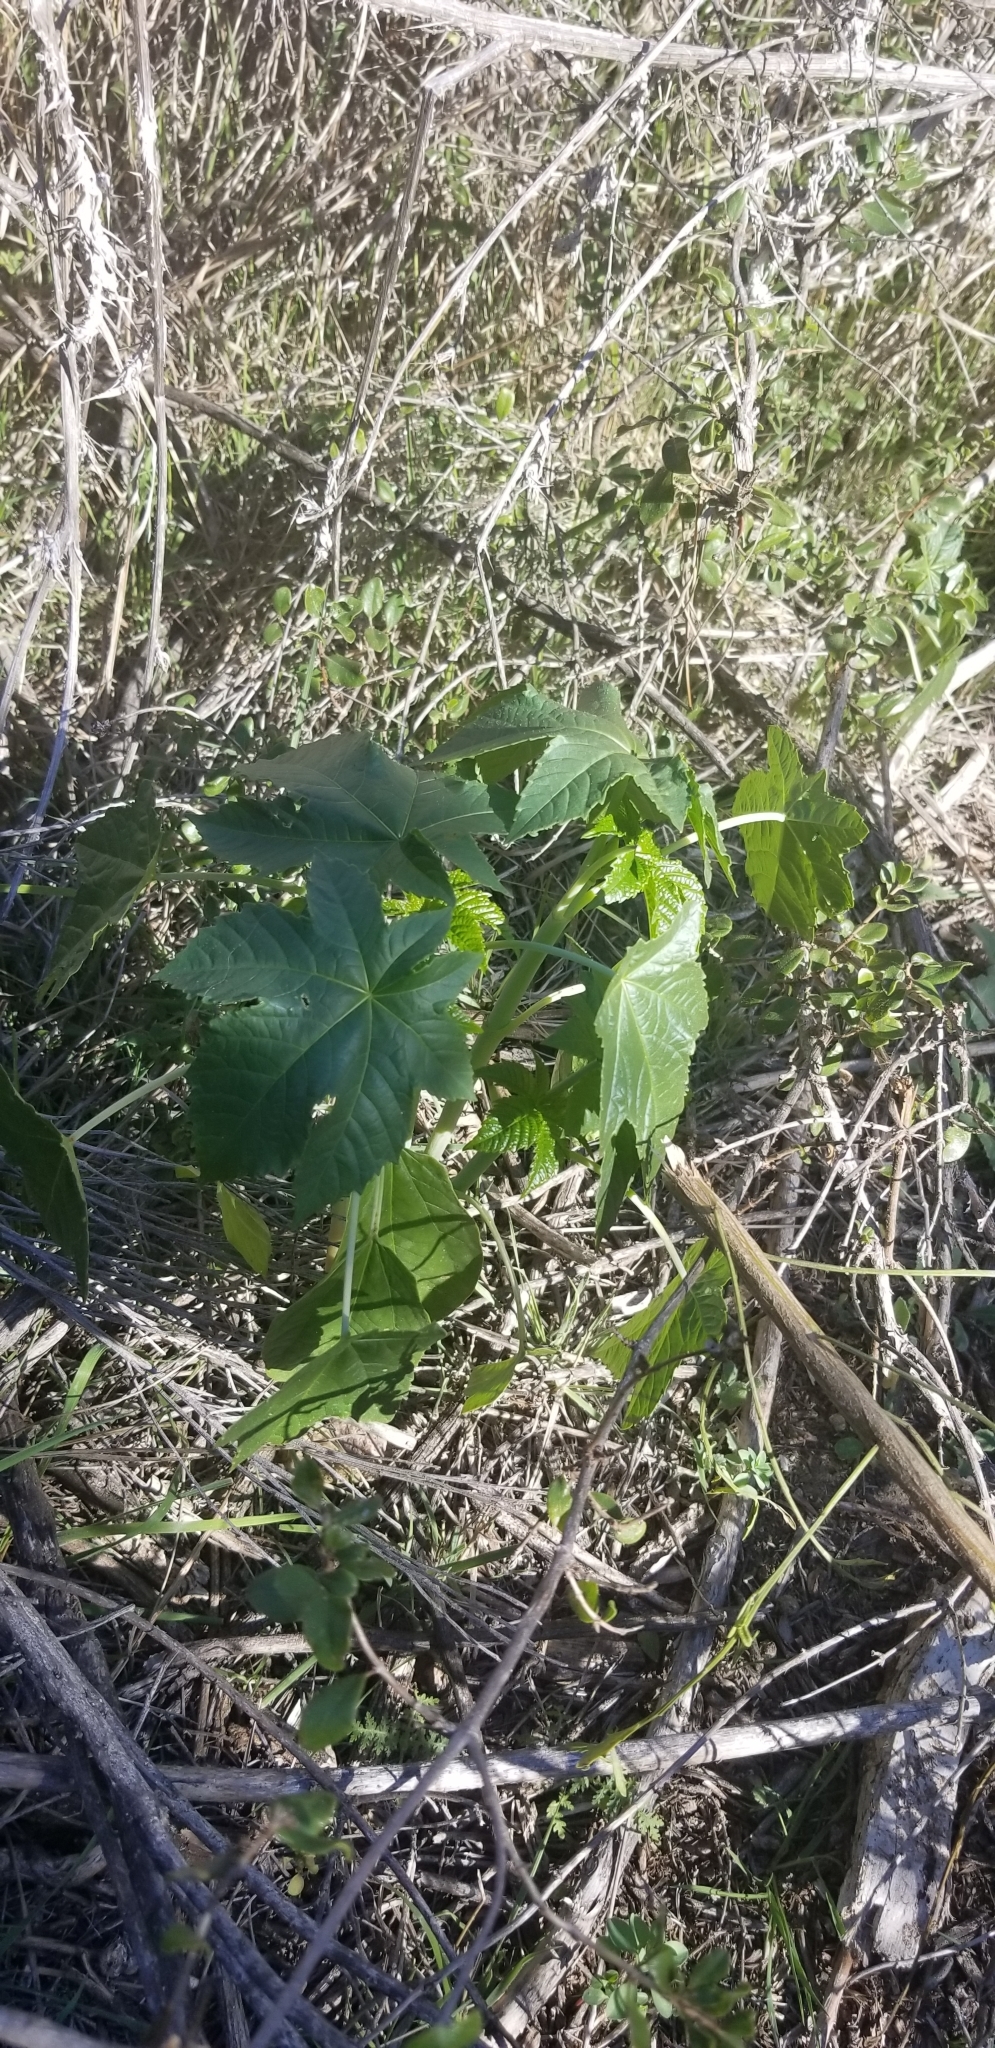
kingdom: Plantae
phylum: Tracheophyta
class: Magnoliopsida
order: Malpighiales
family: Euphorbiaceae
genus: Ricinus
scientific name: Ricinus communis
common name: Castor-oil-plant
